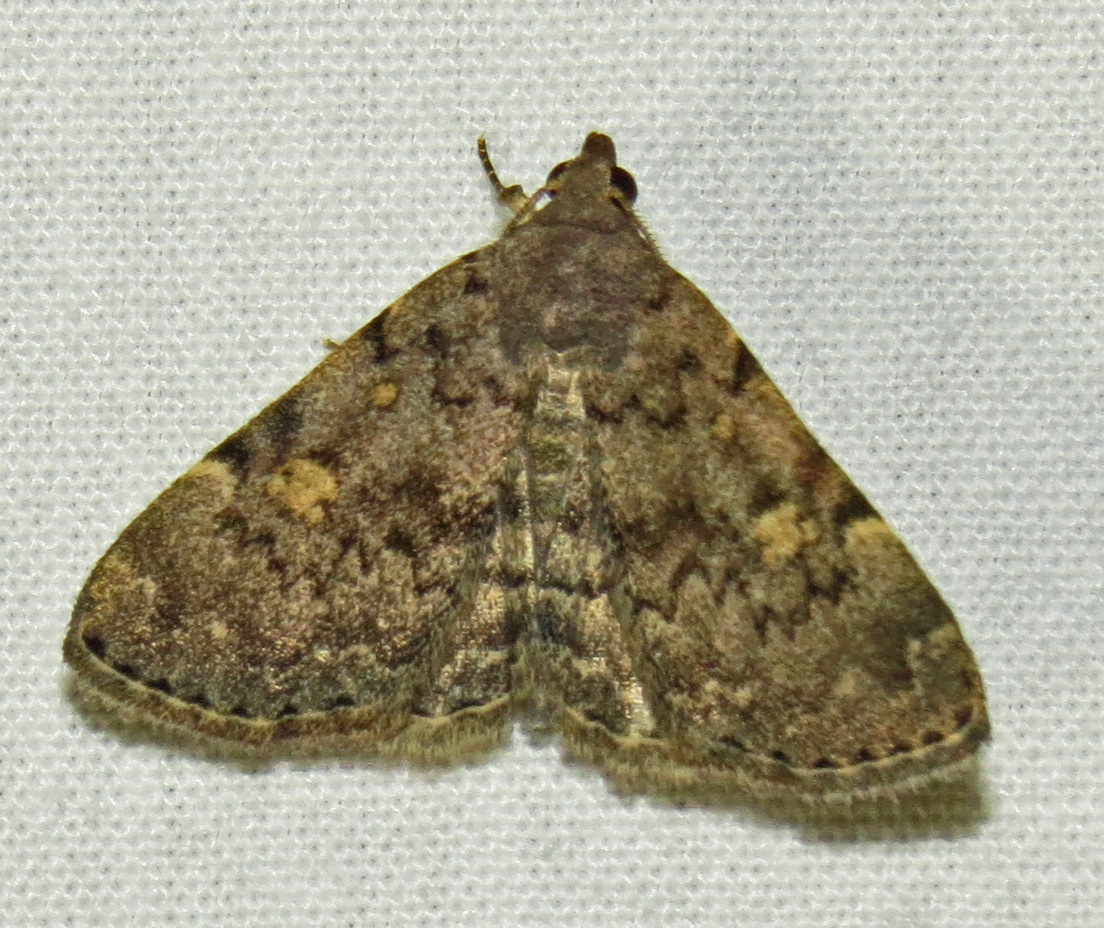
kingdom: Animalia
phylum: Arthropoda
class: Insecta
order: Lepidoptera
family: Erebidae
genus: Idia
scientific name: Idia aemula
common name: Common idia moth
